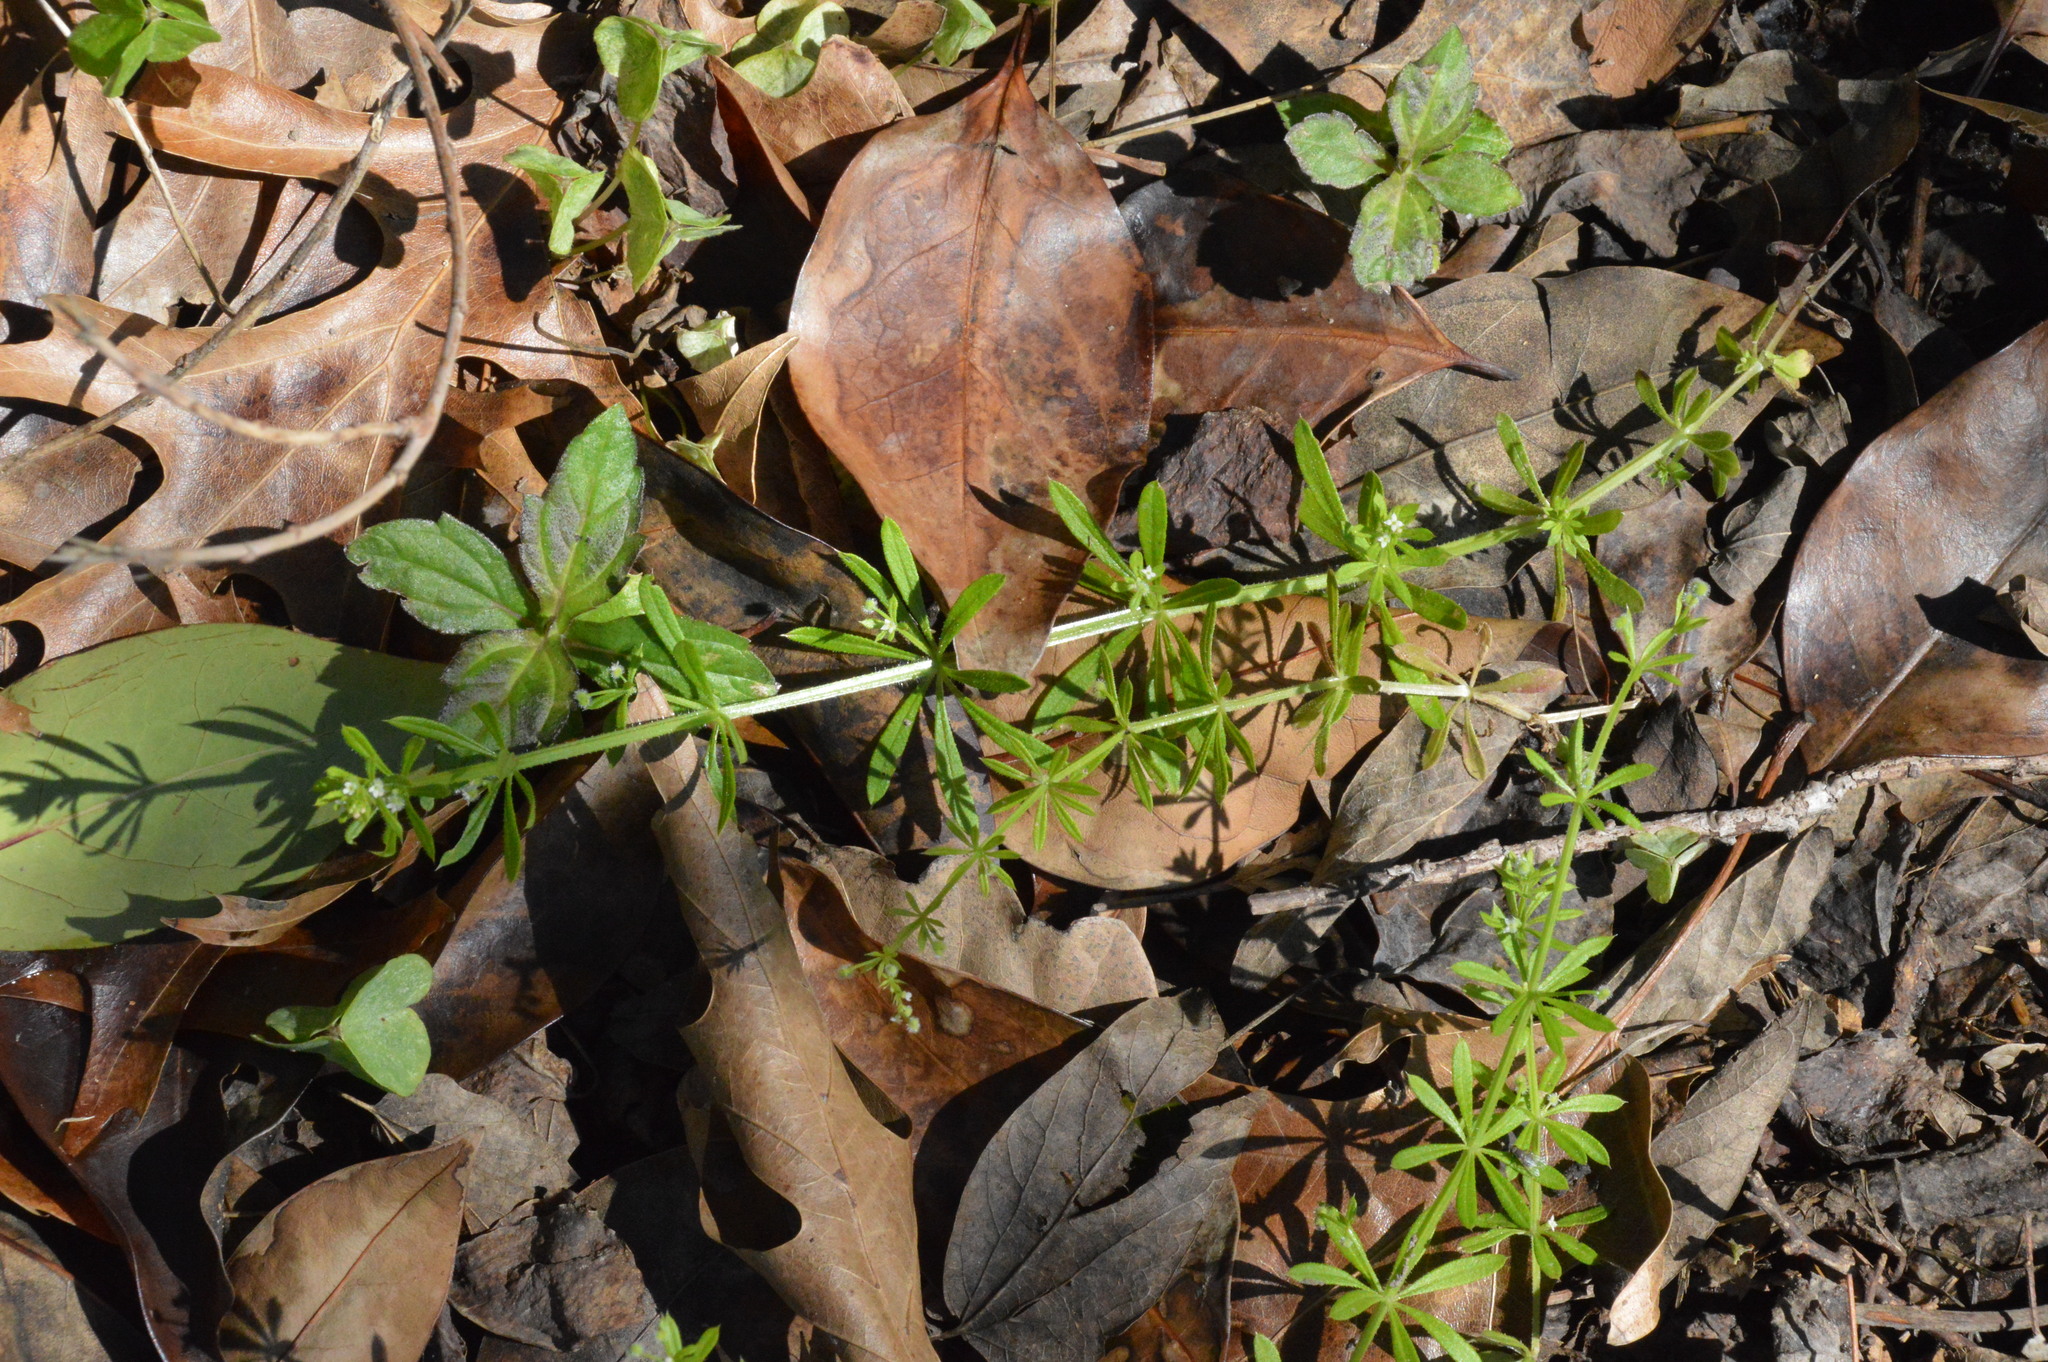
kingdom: Plantae
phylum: Tracheophyta
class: Magnoliopsida
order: Gentianales
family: Rubiaceae
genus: Galium
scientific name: Galium aparine
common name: Cleavers
